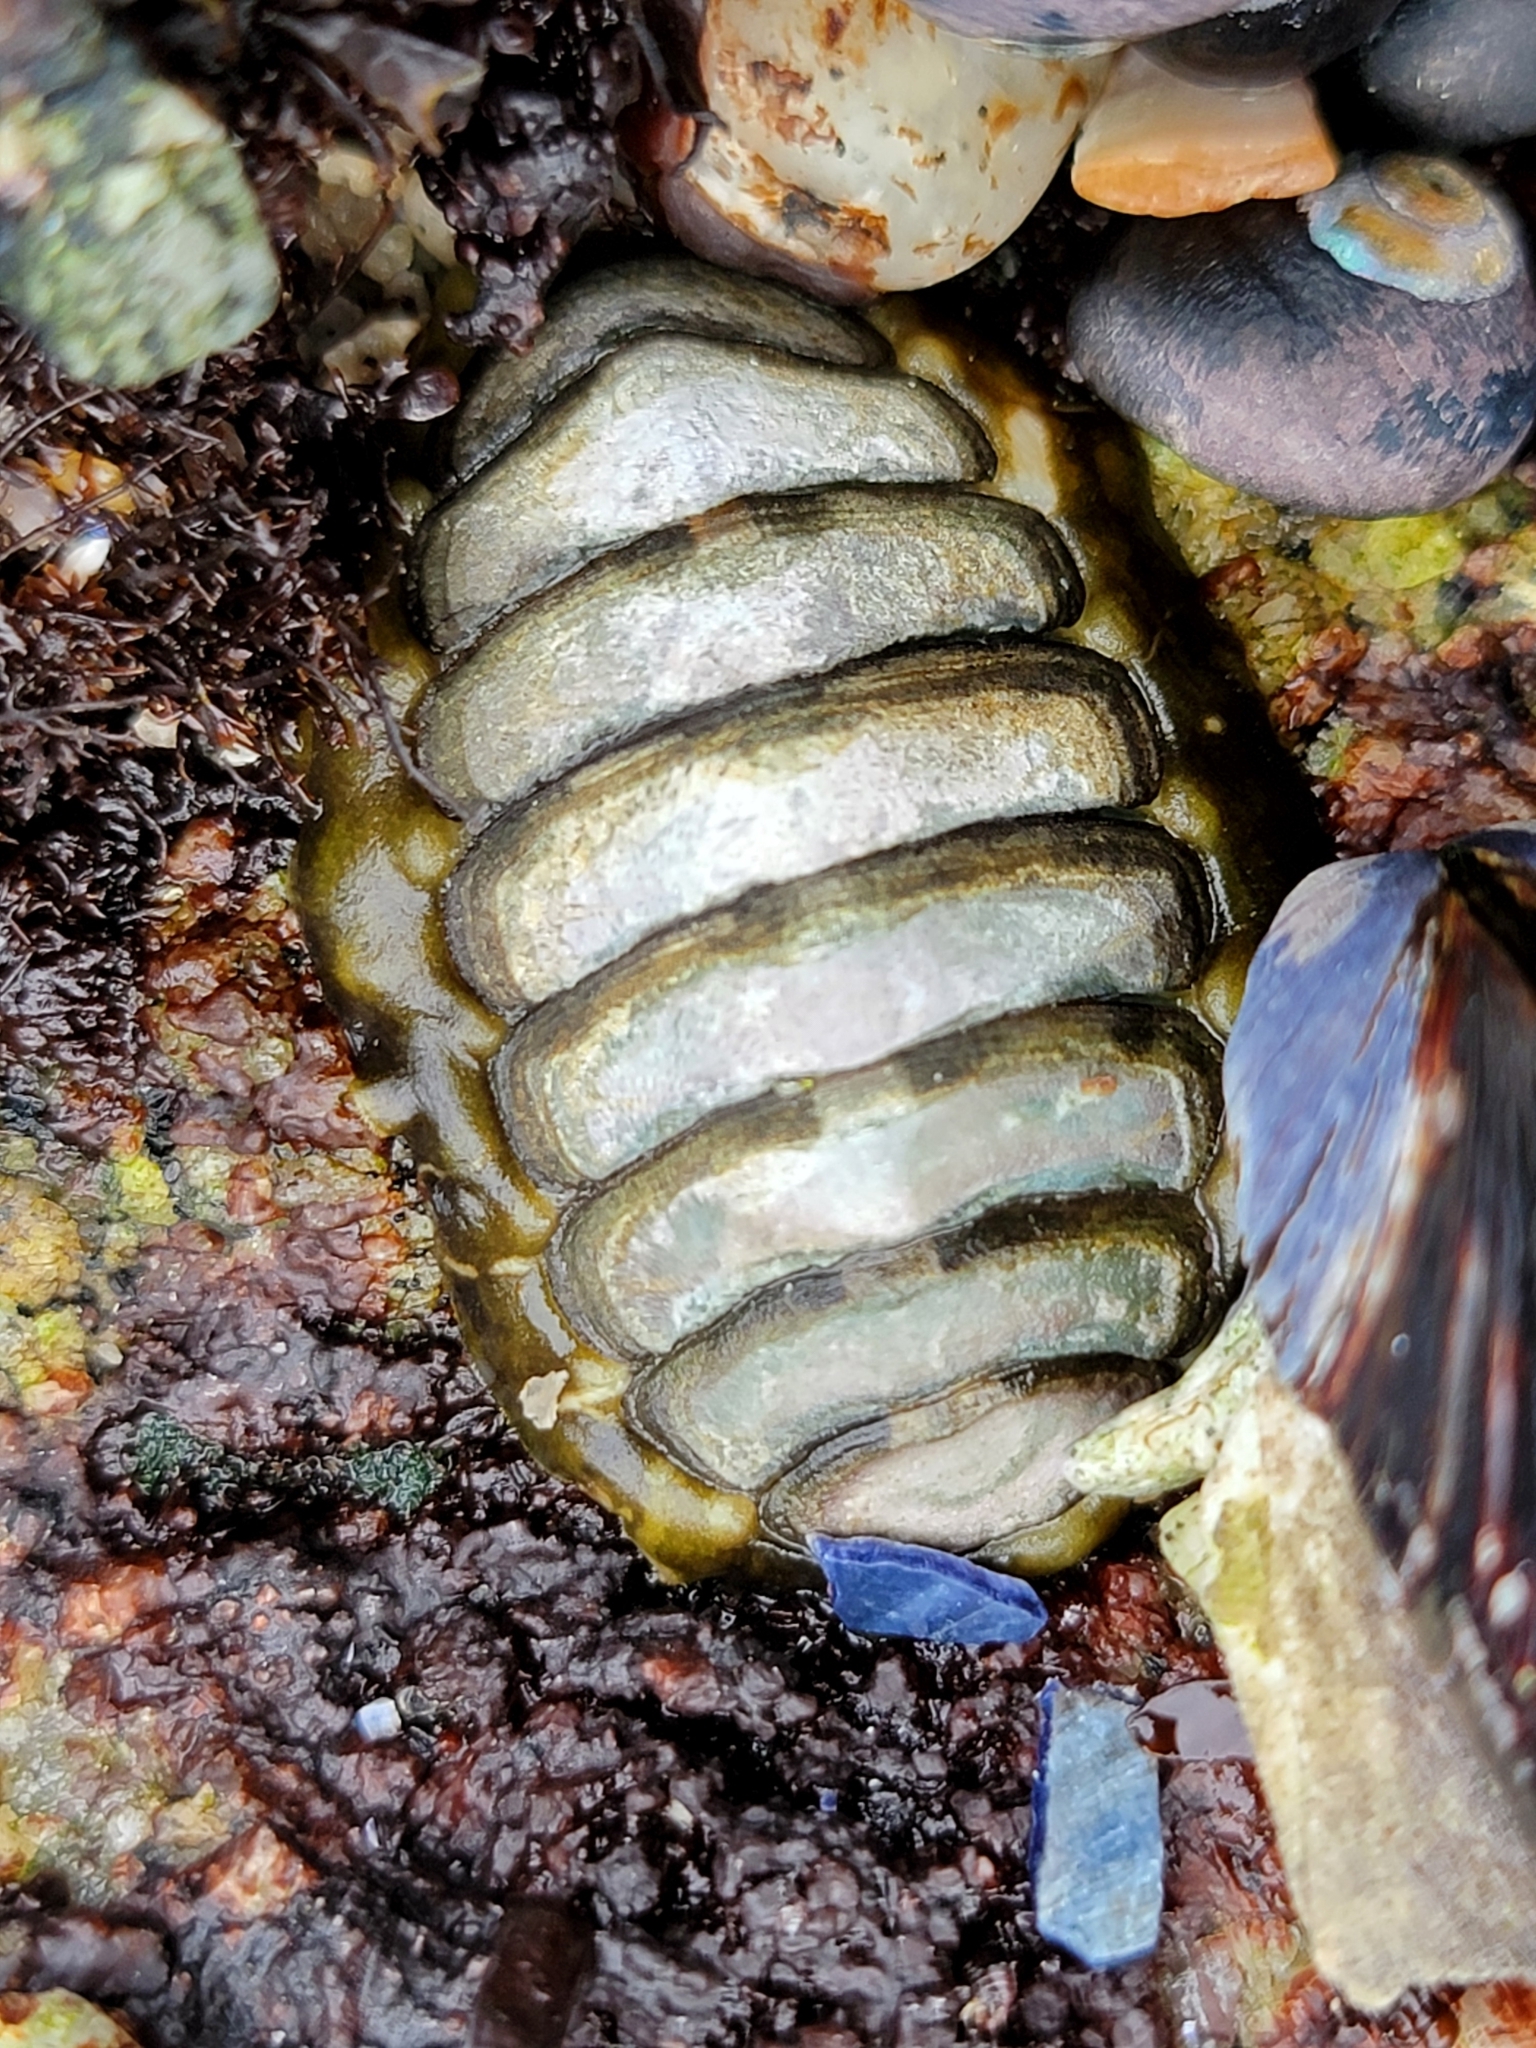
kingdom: Animalia
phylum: Mollusca
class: Polyplacophora
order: Chitonida
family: Tonicellidae
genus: Cyanoplax
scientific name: Cyanoplax hartwegii
